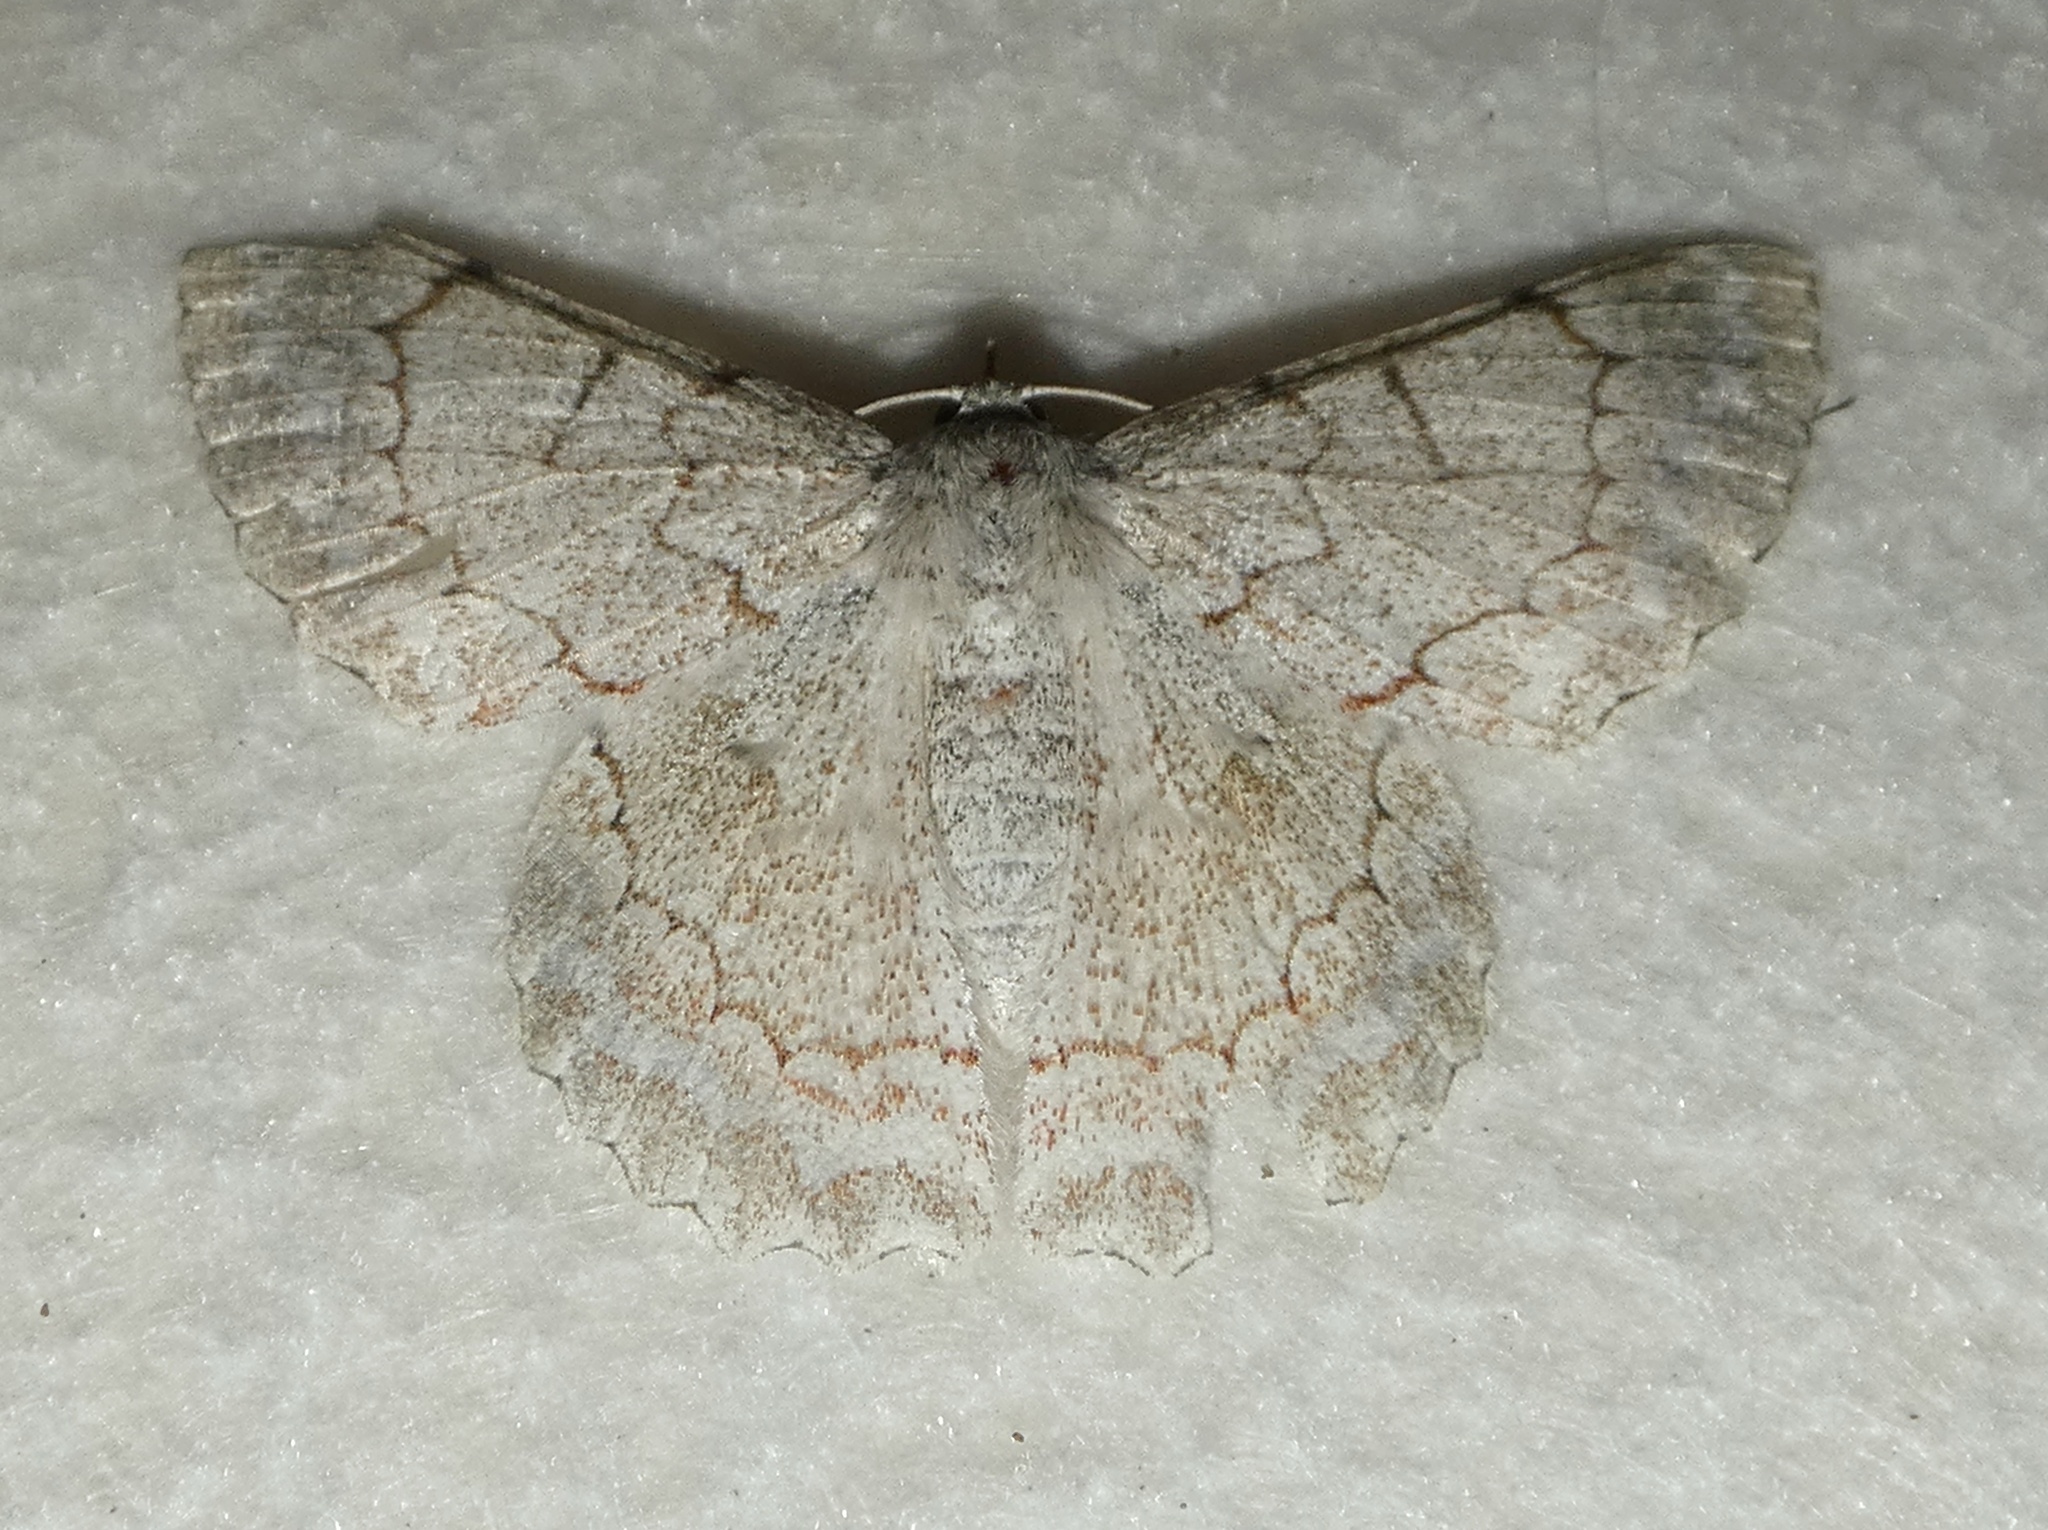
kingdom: Animalia
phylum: Arthropoda
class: Insecta
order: Lepidoptera
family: Geometridae
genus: Pingasa
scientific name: Pingasa chlora
